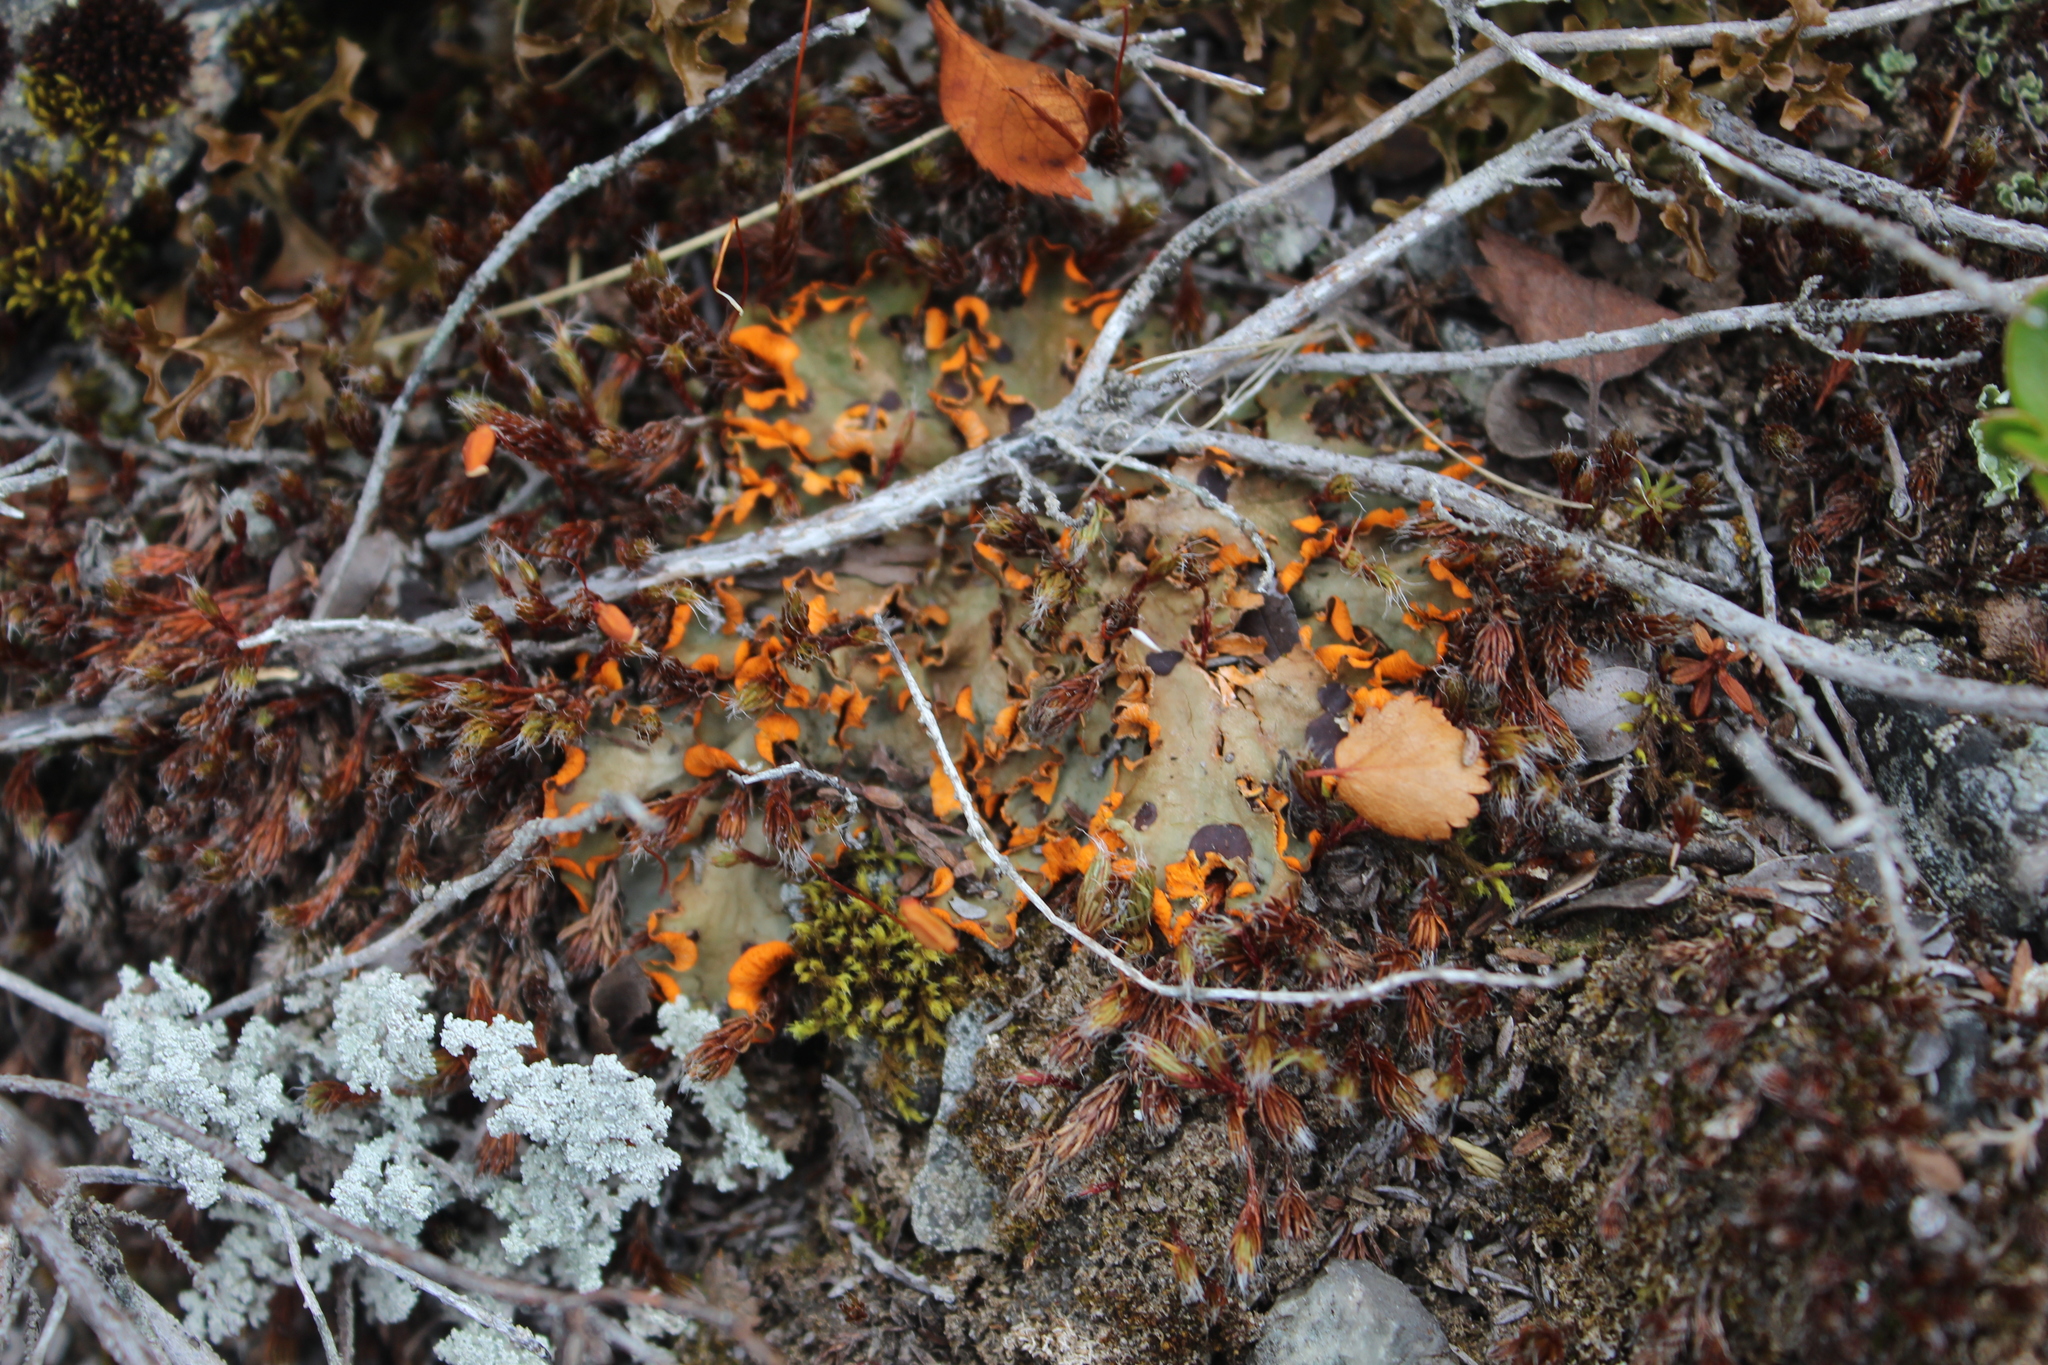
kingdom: Fungi
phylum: Ascomycota
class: Lecanoromycetes
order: Peltigerales
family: Peltigeraceae
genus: Solorina
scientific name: Solorina crocea
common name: Mountain saffron
